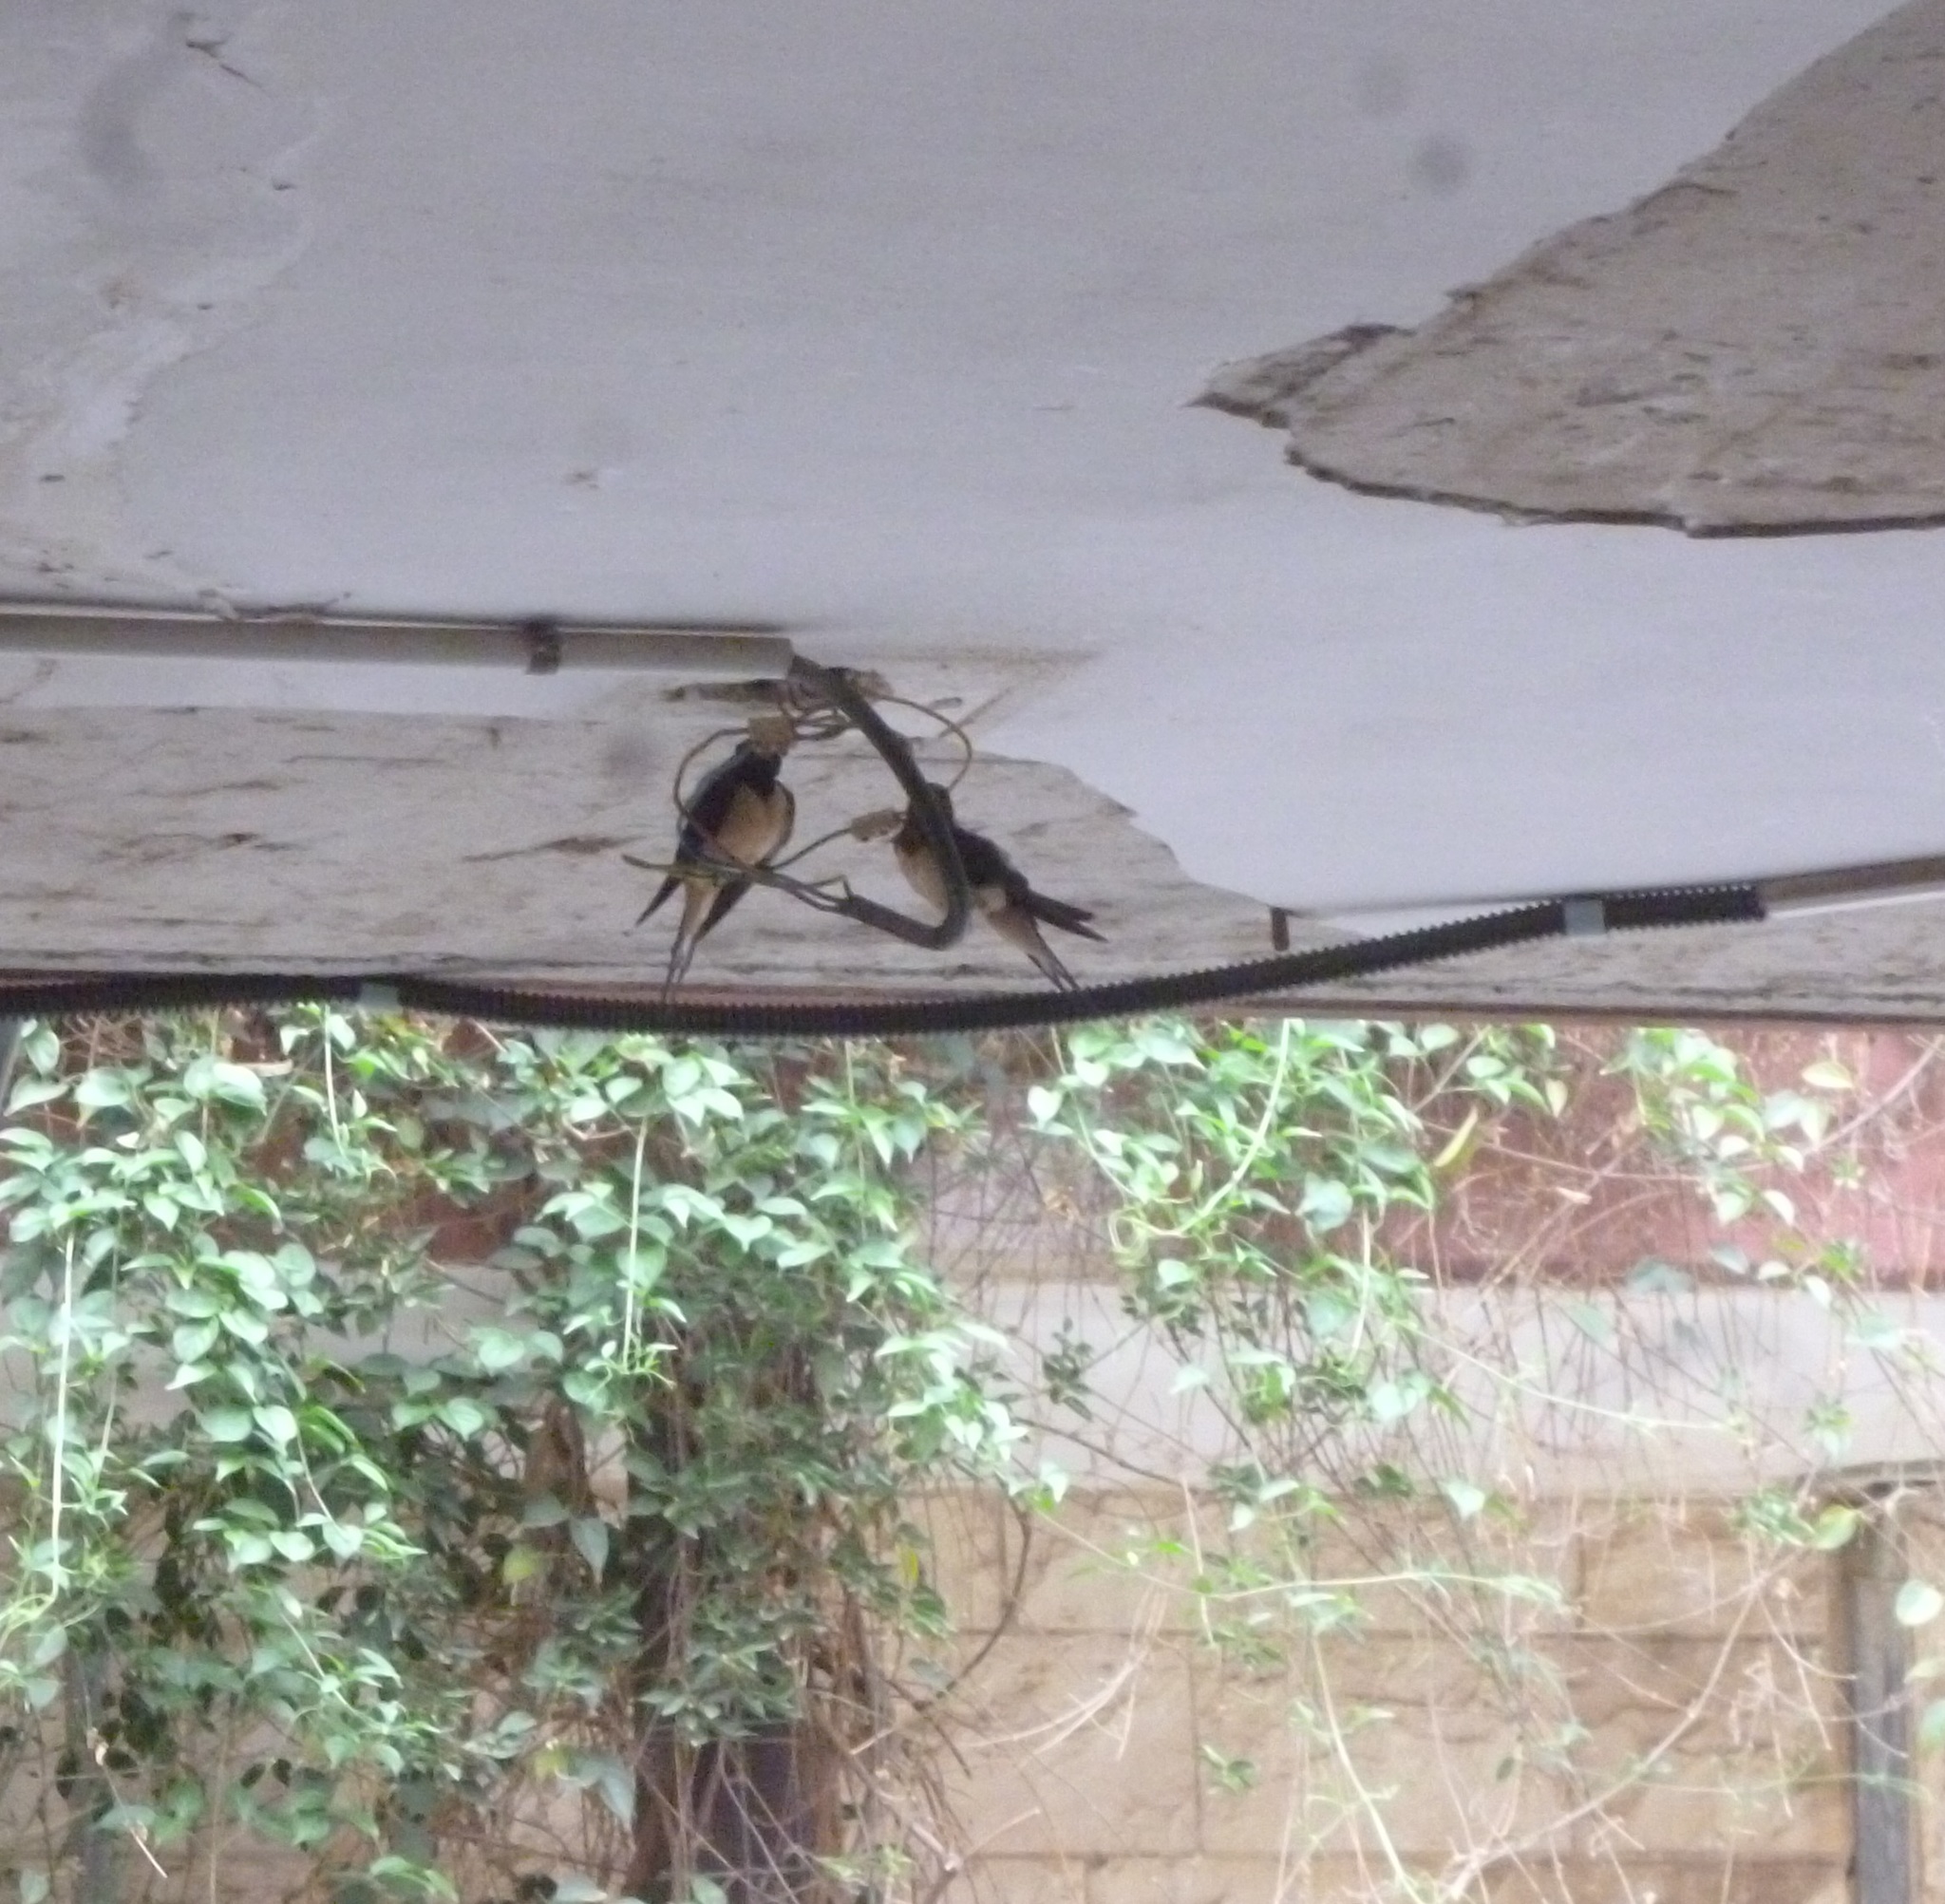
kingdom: Animalia
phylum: Chordata
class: Aves
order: Passeriformes
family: Hirundinidae
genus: Hirundo
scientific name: Hirundo rustica
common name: Barn swallow
